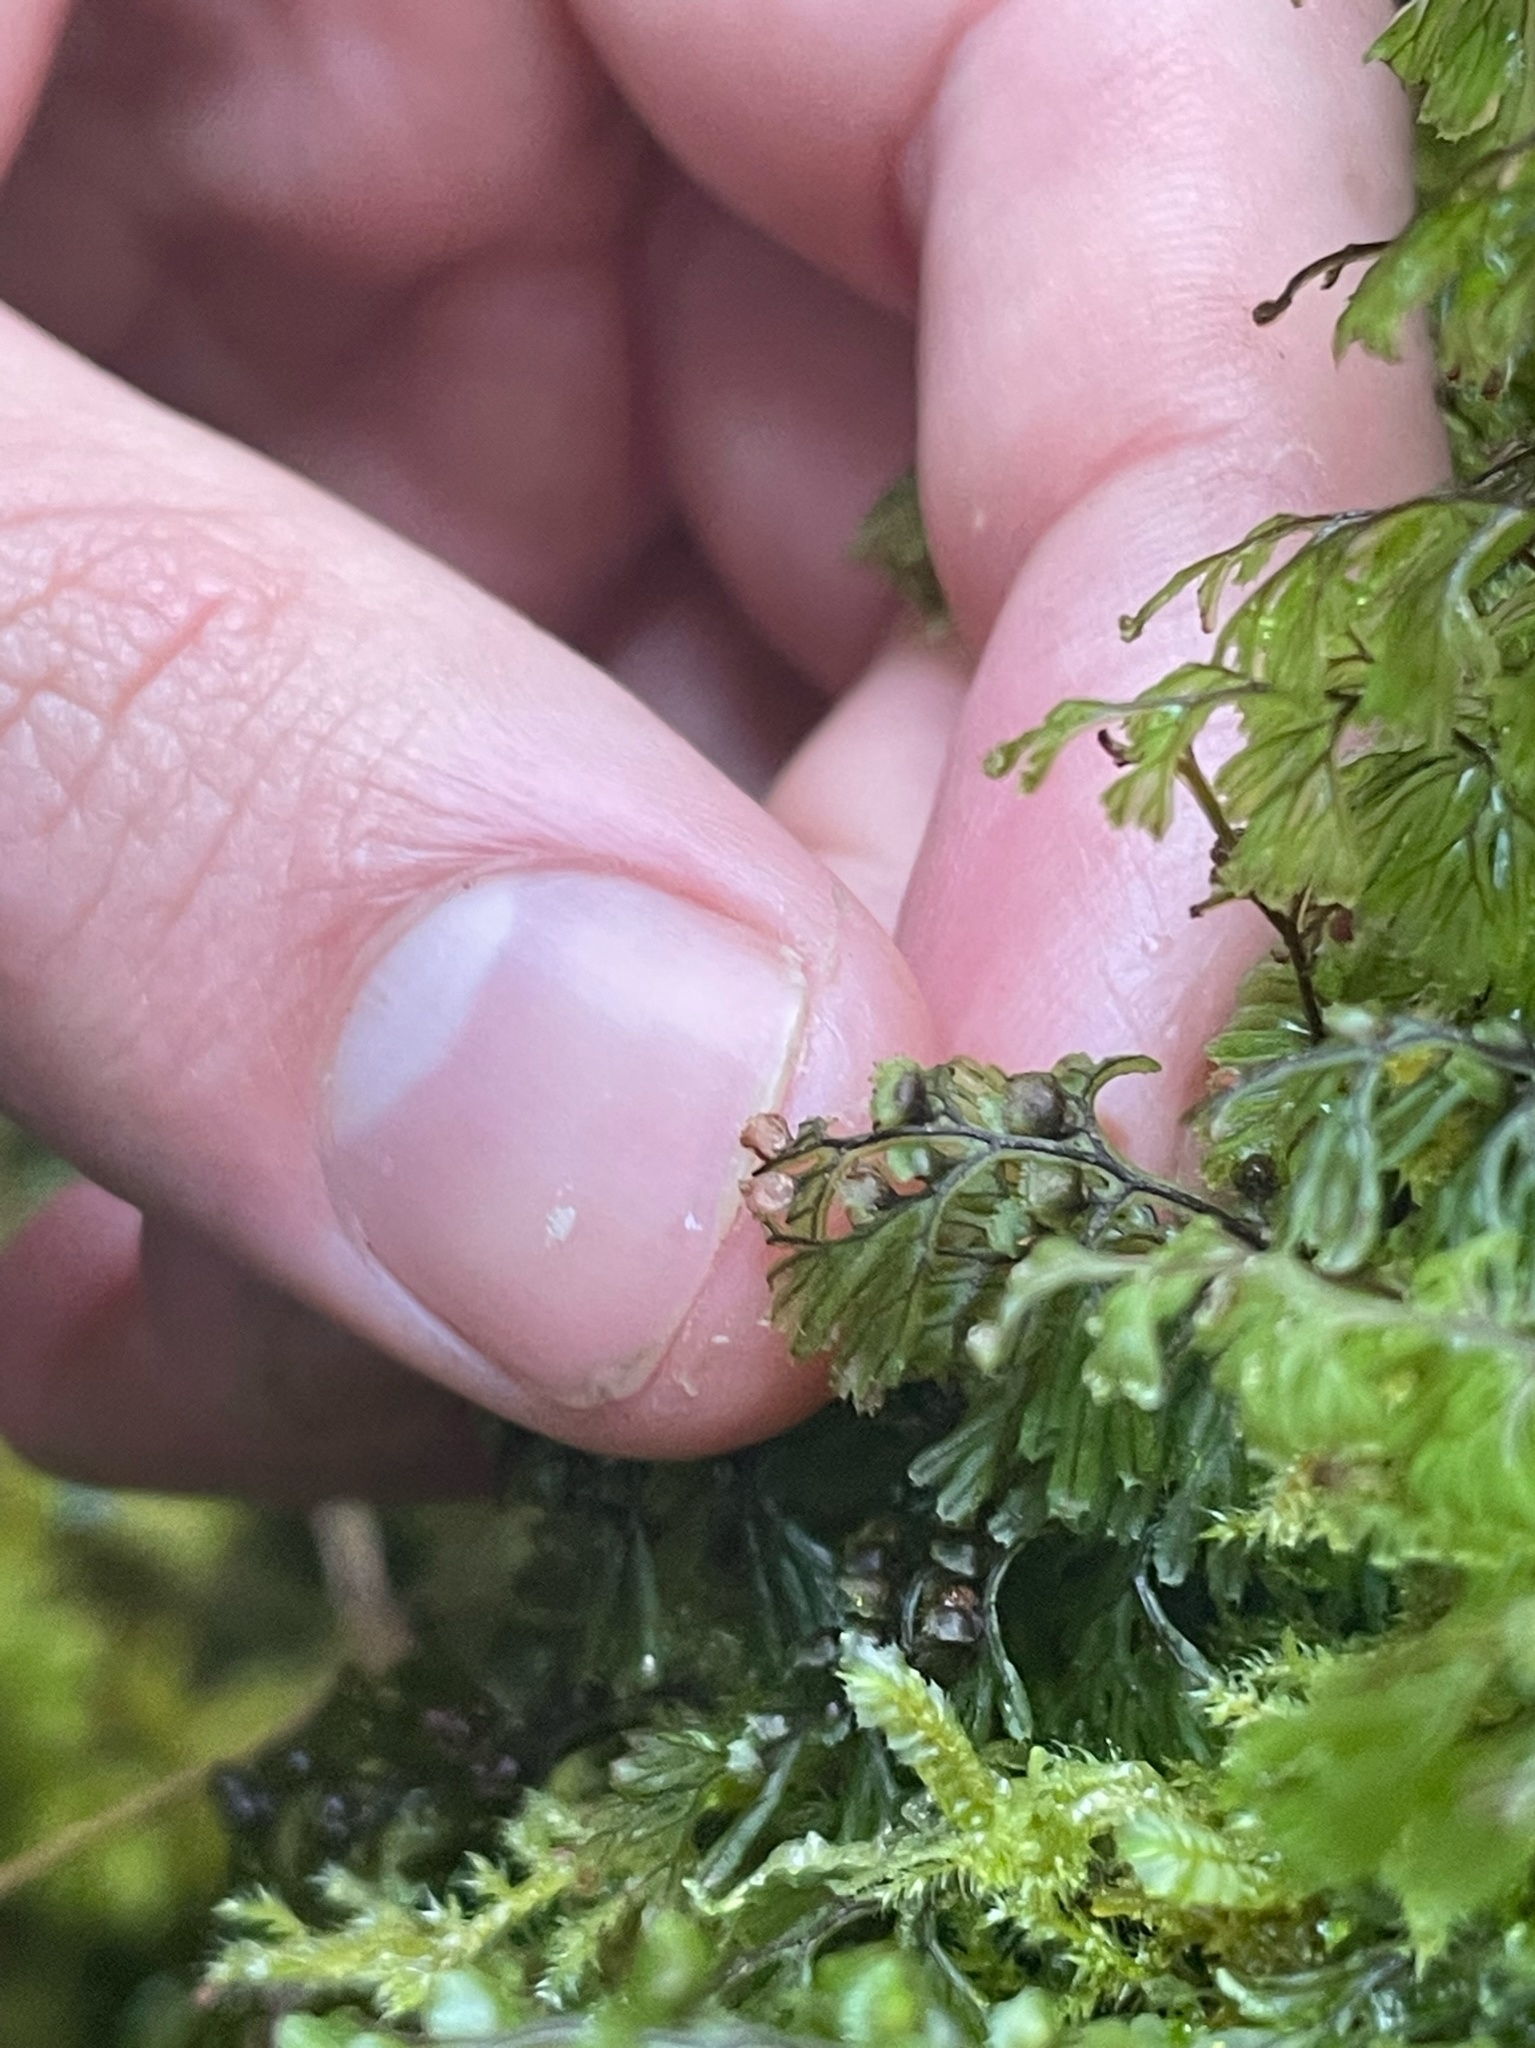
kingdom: Plantae
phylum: Tracheophyta
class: Polypodiopsida
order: Hymenophyllales
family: Hymenophyllaceae
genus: Hymenophyllum
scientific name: Hymenophyllum tunbrigense
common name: Tunbridge filmy fern
